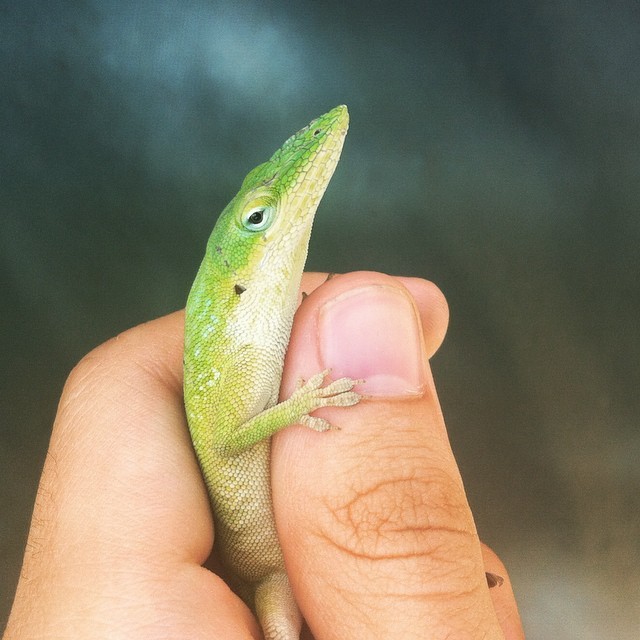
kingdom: Animalia
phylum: Chordata
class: Squamata
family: Dactyloidae
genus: Anolis
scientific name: Anolis carolinensis
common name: Green anole
